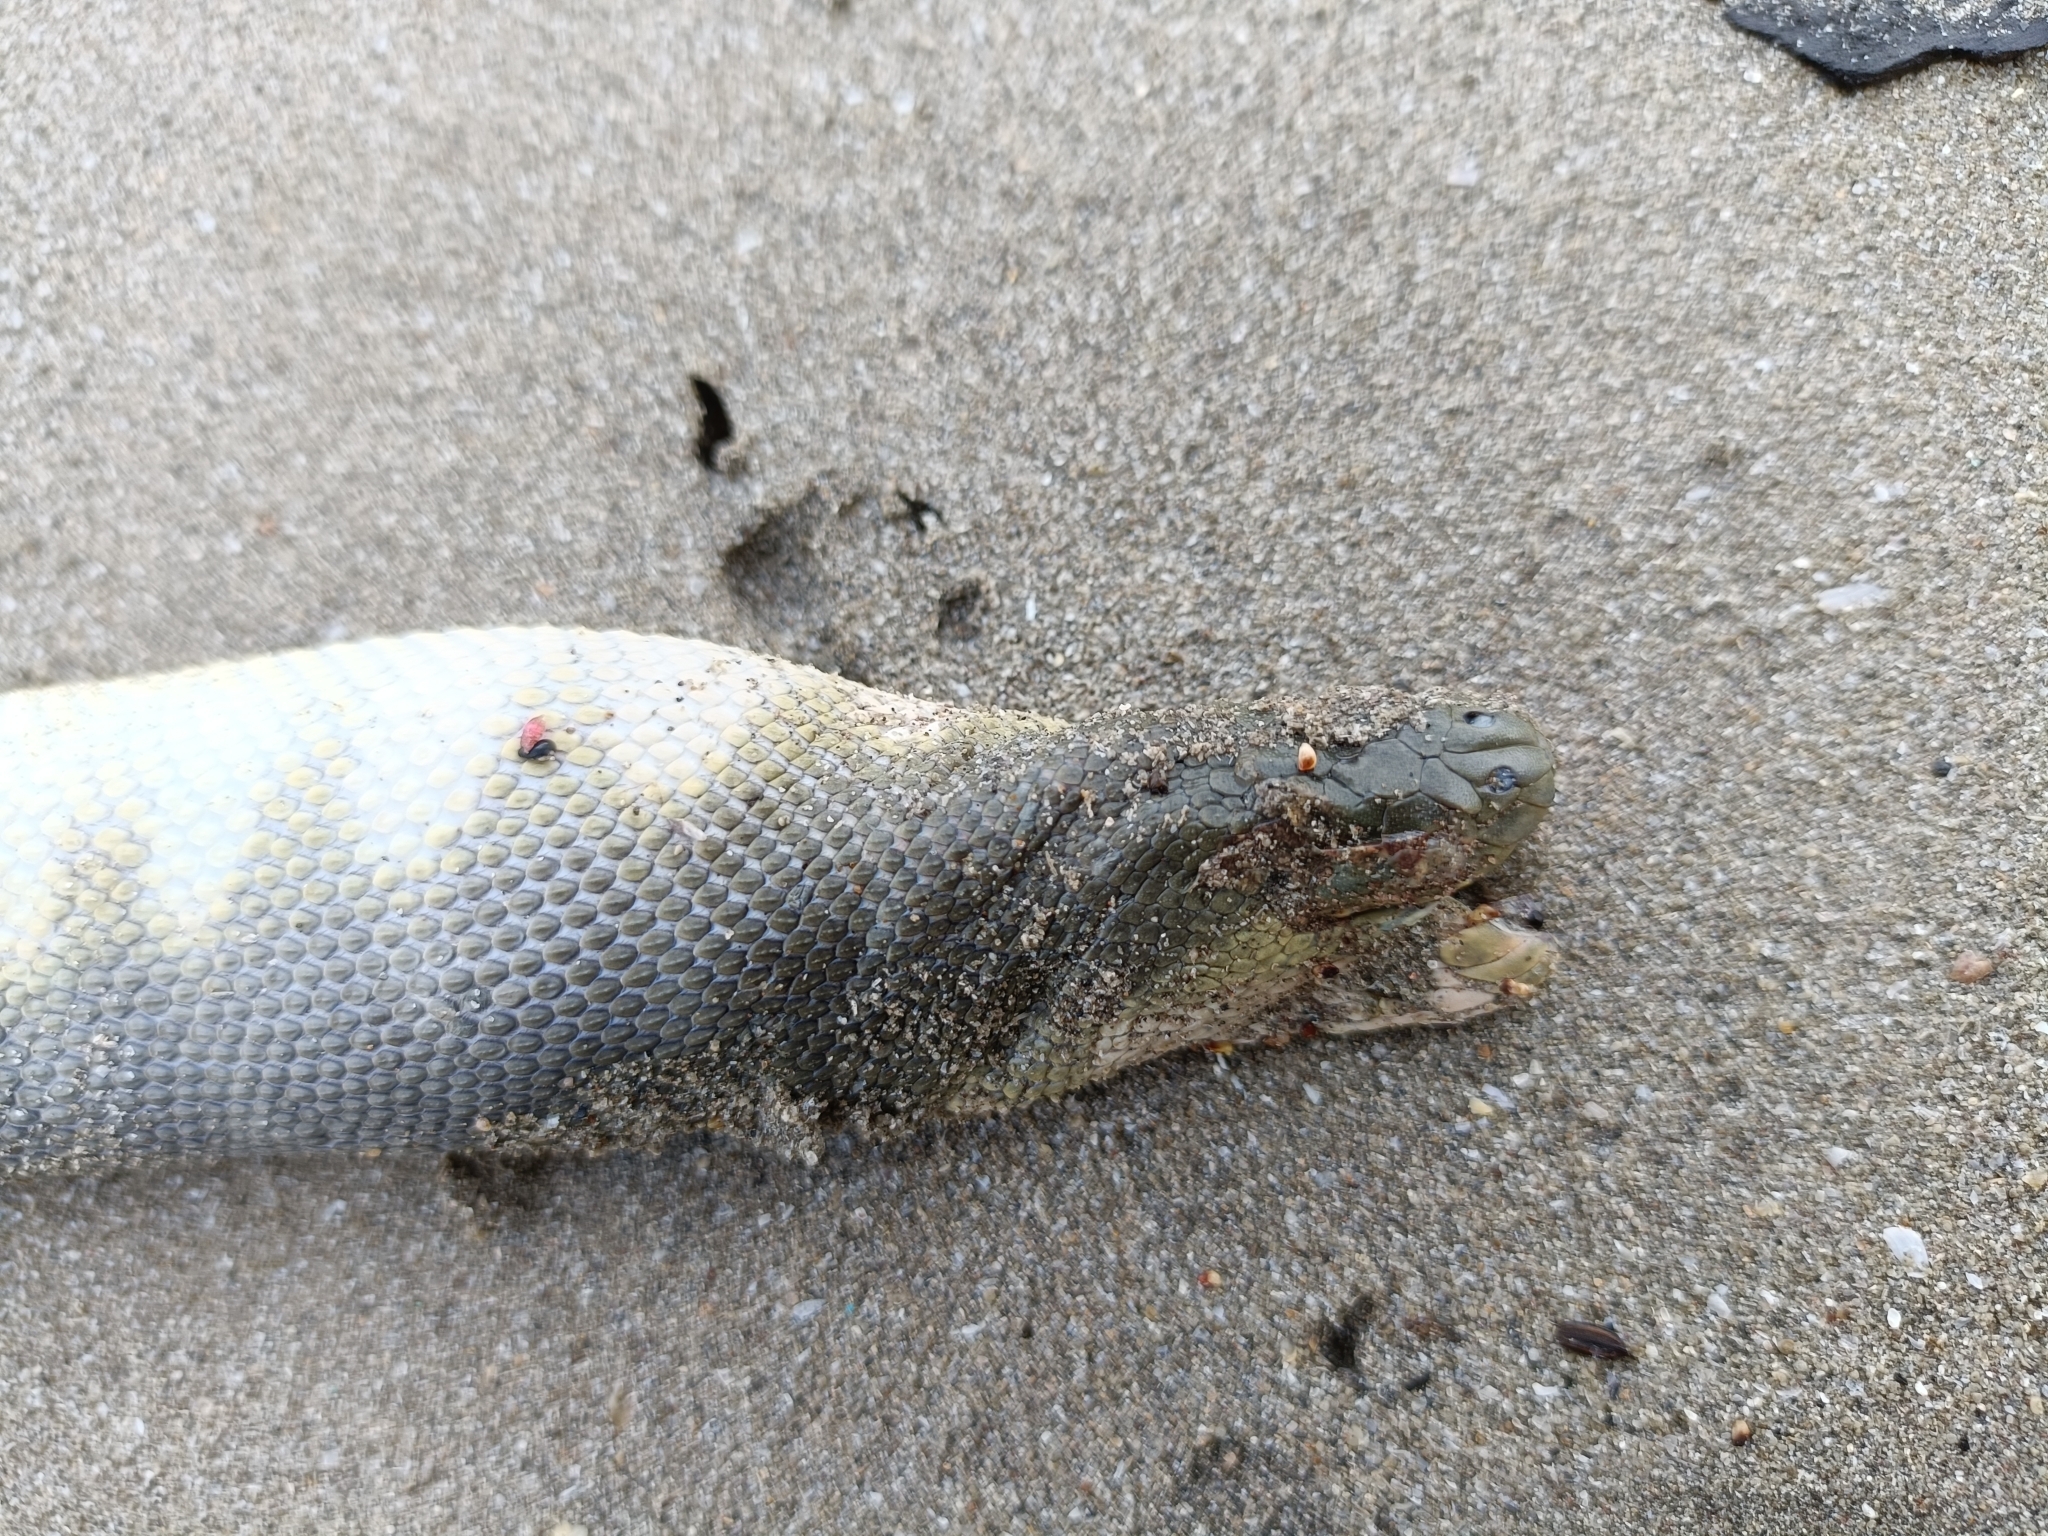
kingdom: Animalia
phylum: Chordata
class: Squamata
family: Elapidae
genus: Hydrophis
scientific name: Hydrophis schistosus
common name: Hook-nosed sea snake
